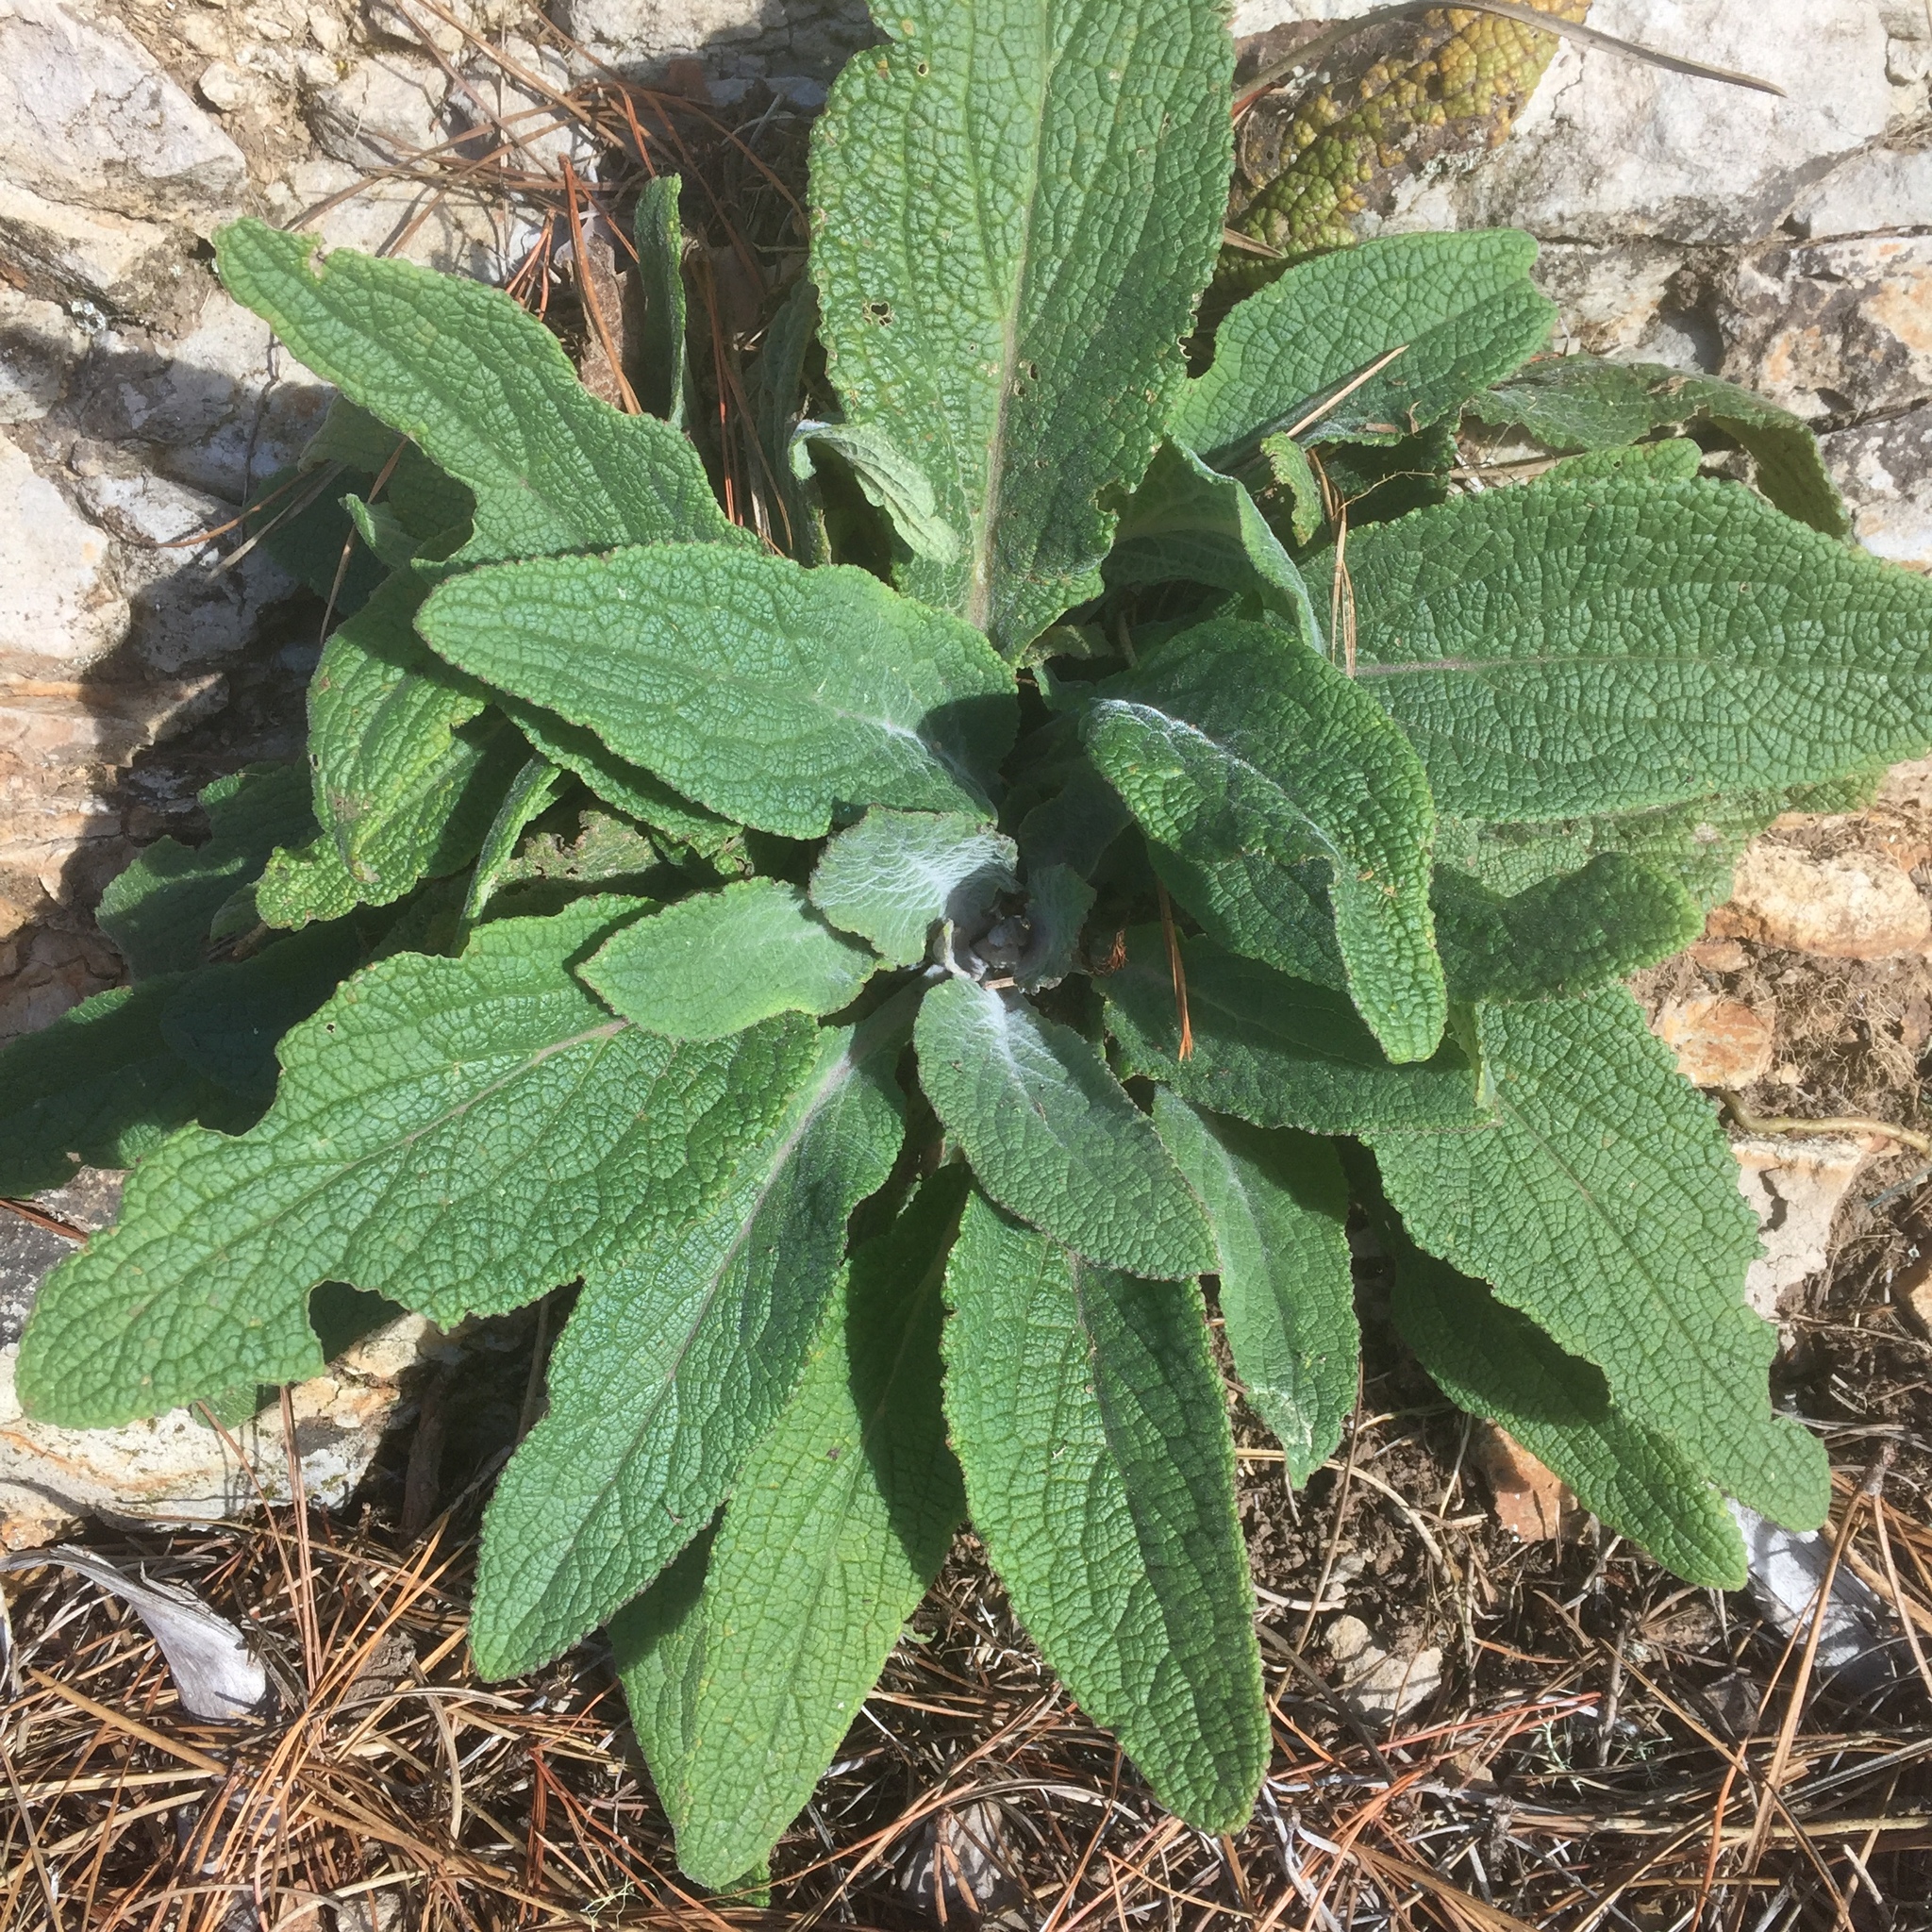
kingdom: Plantae
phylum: Tracheophyta
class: Magnoliopsida
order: Lamiales
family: Plantaginaceae
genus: Digitalis
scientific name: Digitalis purpurea
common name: Foxglove
